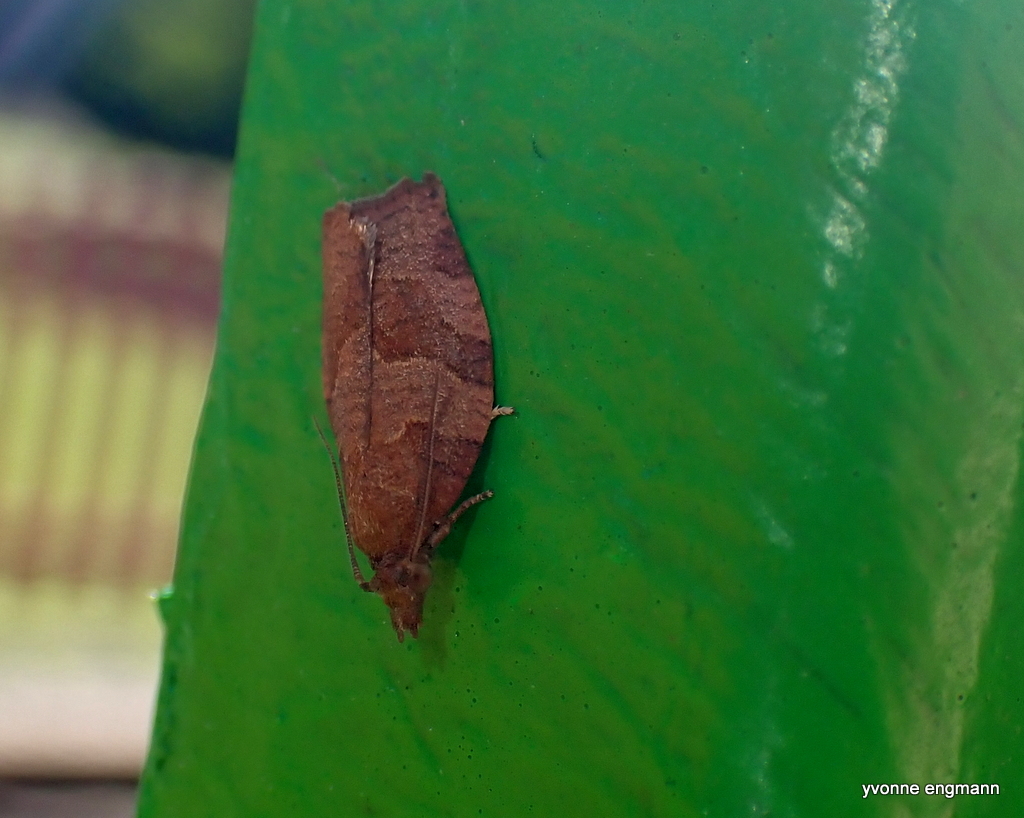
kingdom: Animalia
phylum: Arthropoda
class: Insecta
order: Lepidoptera
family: Tortricidae
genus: Pandemis
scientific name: Pandemis heparana
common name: Dark fruit-tree tortrix
